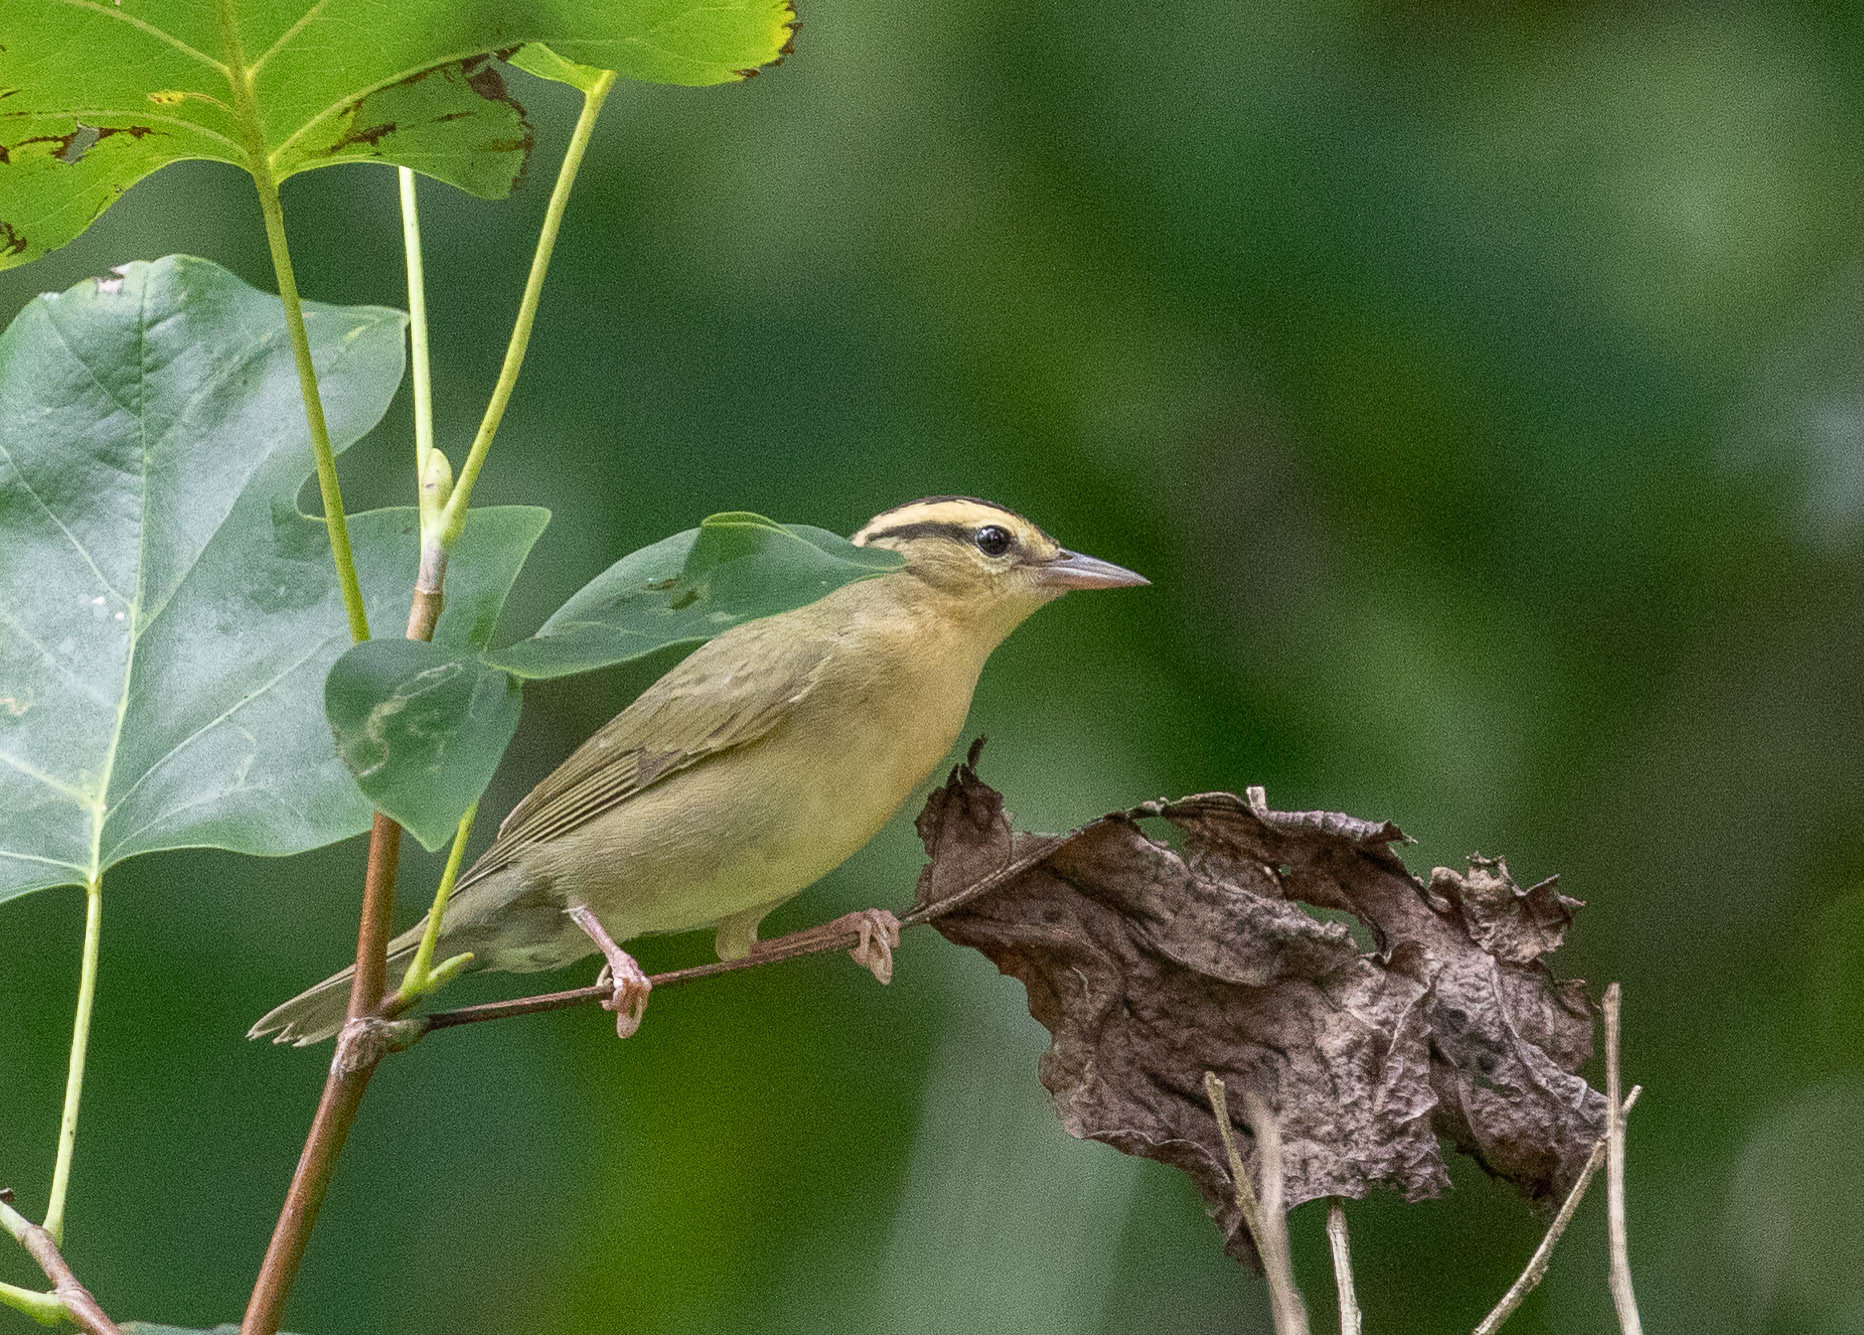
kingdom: Animalia
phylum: Chordata
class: Aves
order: Passeriformes
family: Parulidae
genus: Helmitheros
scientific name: Helmitheros vermivorum
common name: Worm-eating warbler
